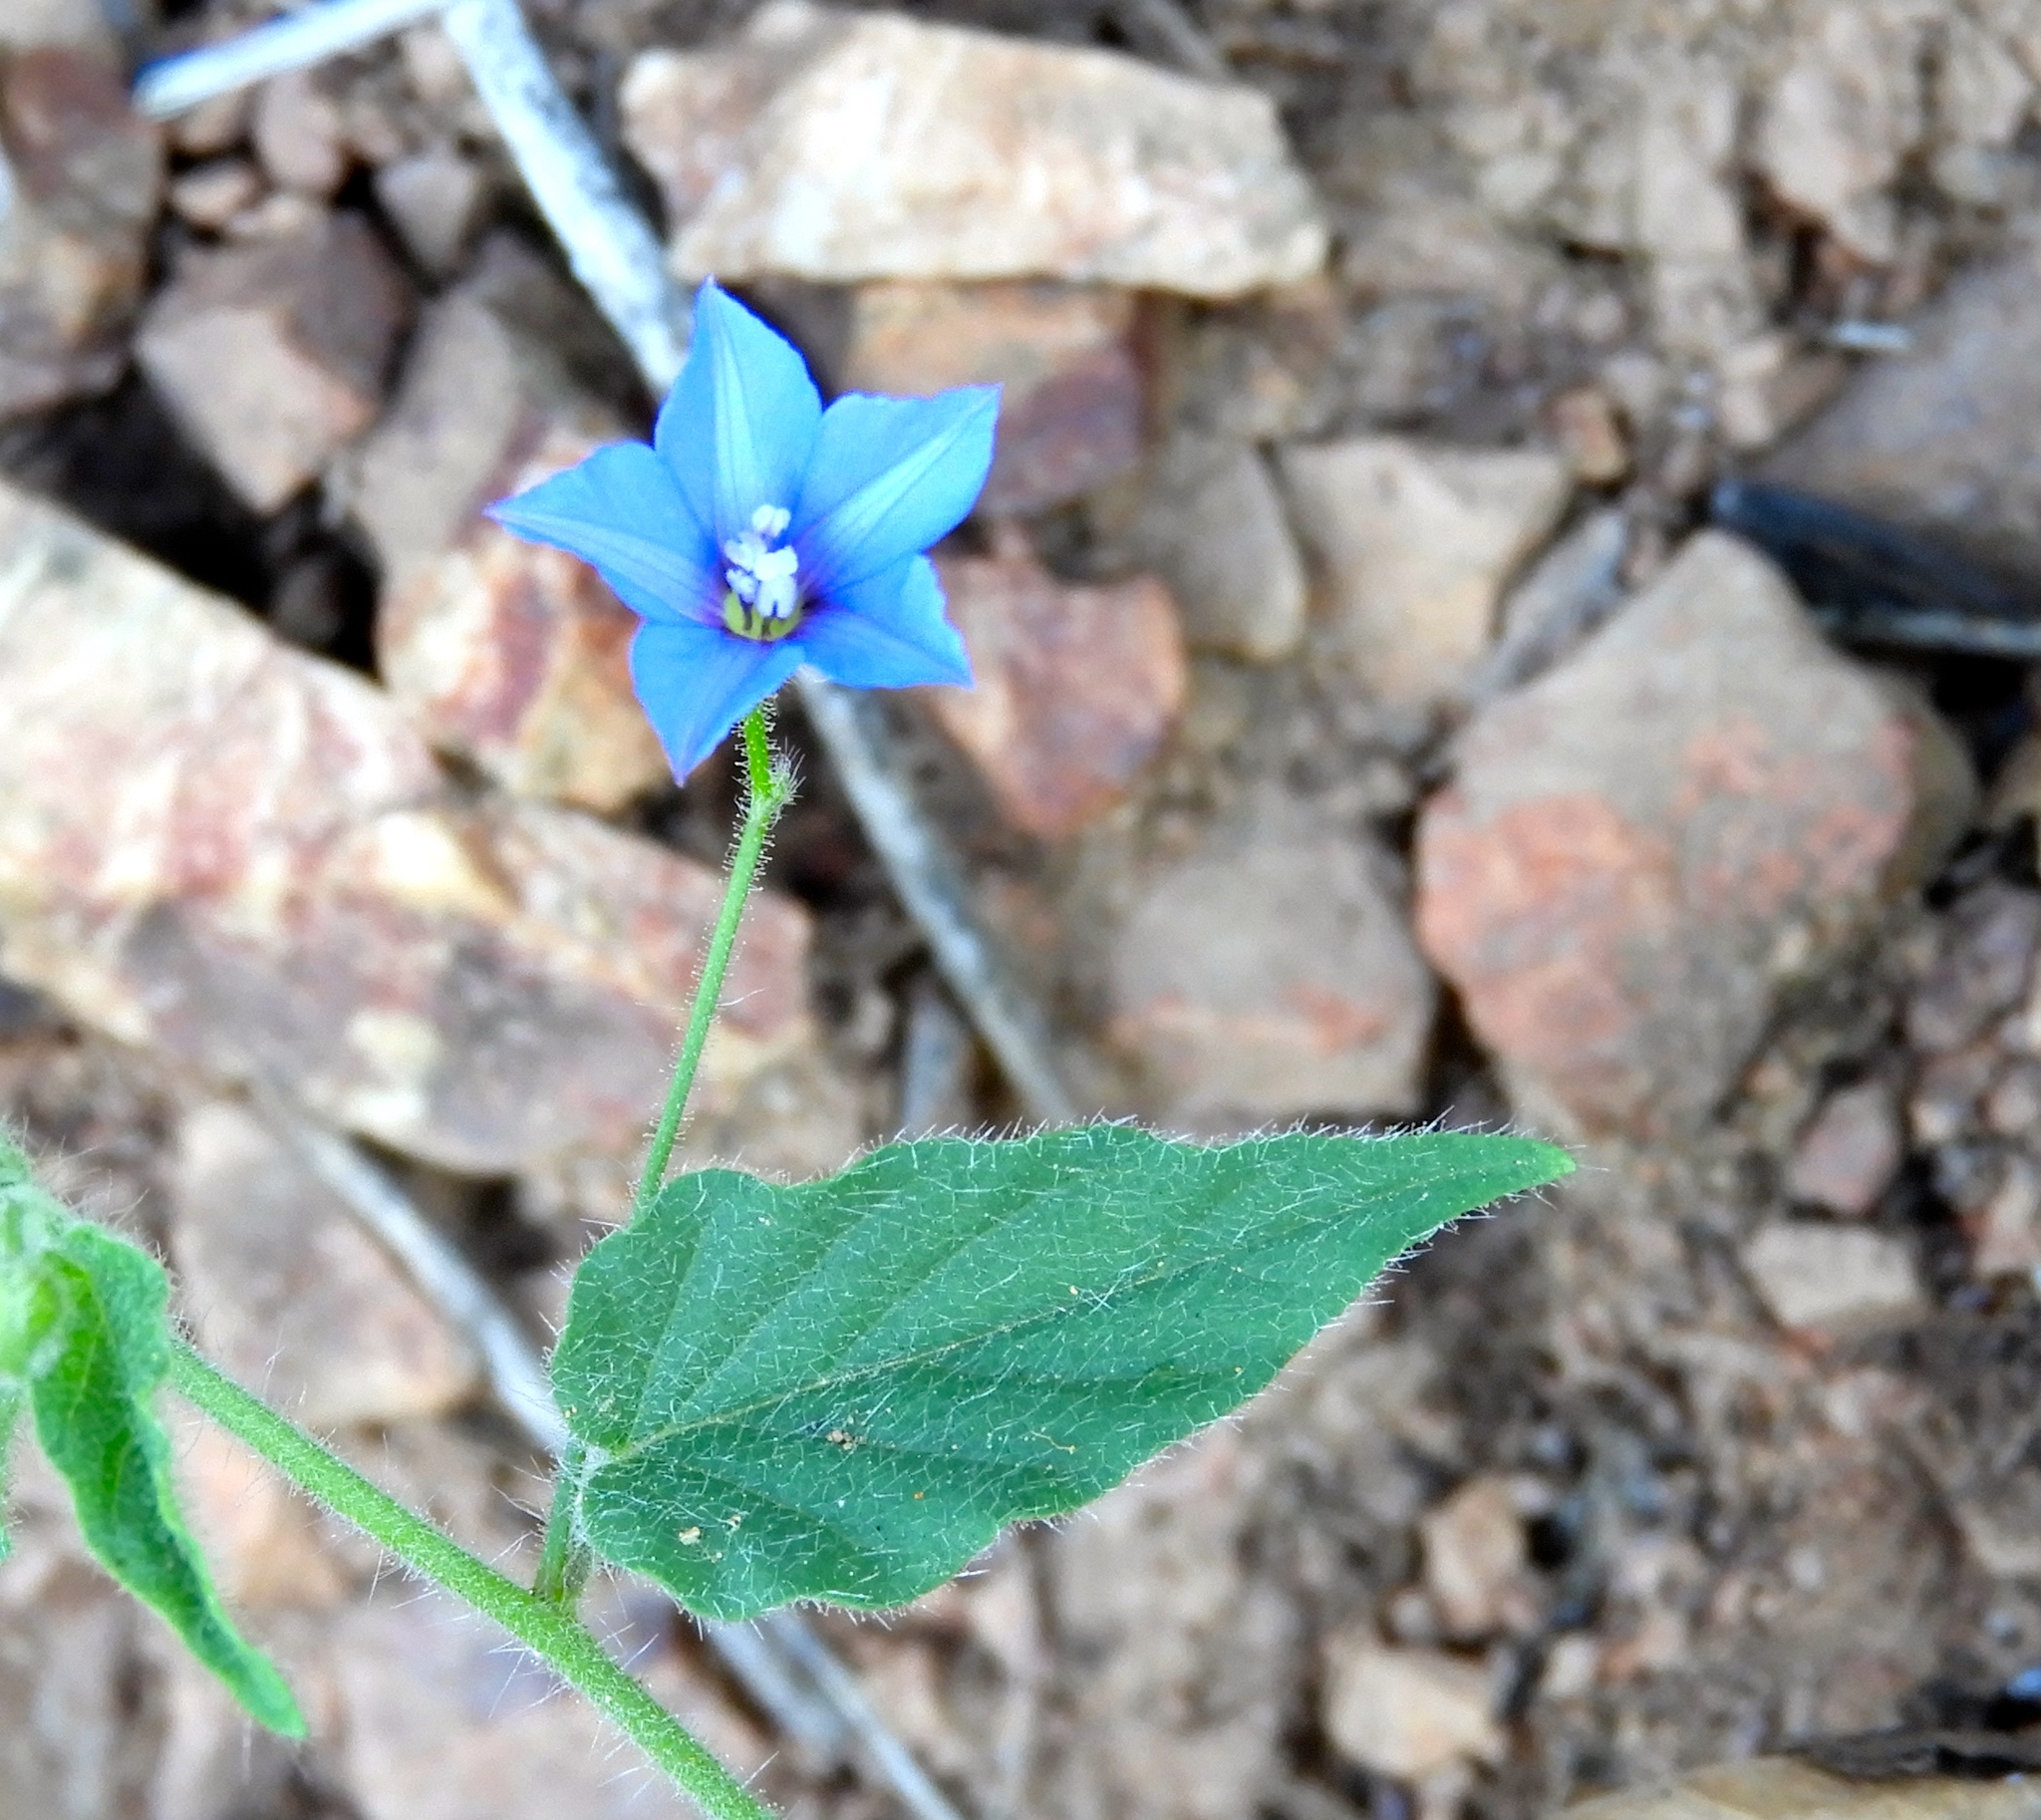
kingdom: Plantae
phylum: Tracheophyta
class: Magnoliopsida
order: Solanales
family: Convolvulaceae
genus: Jacquemontia
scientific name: Jacquemontia evolvuloides
